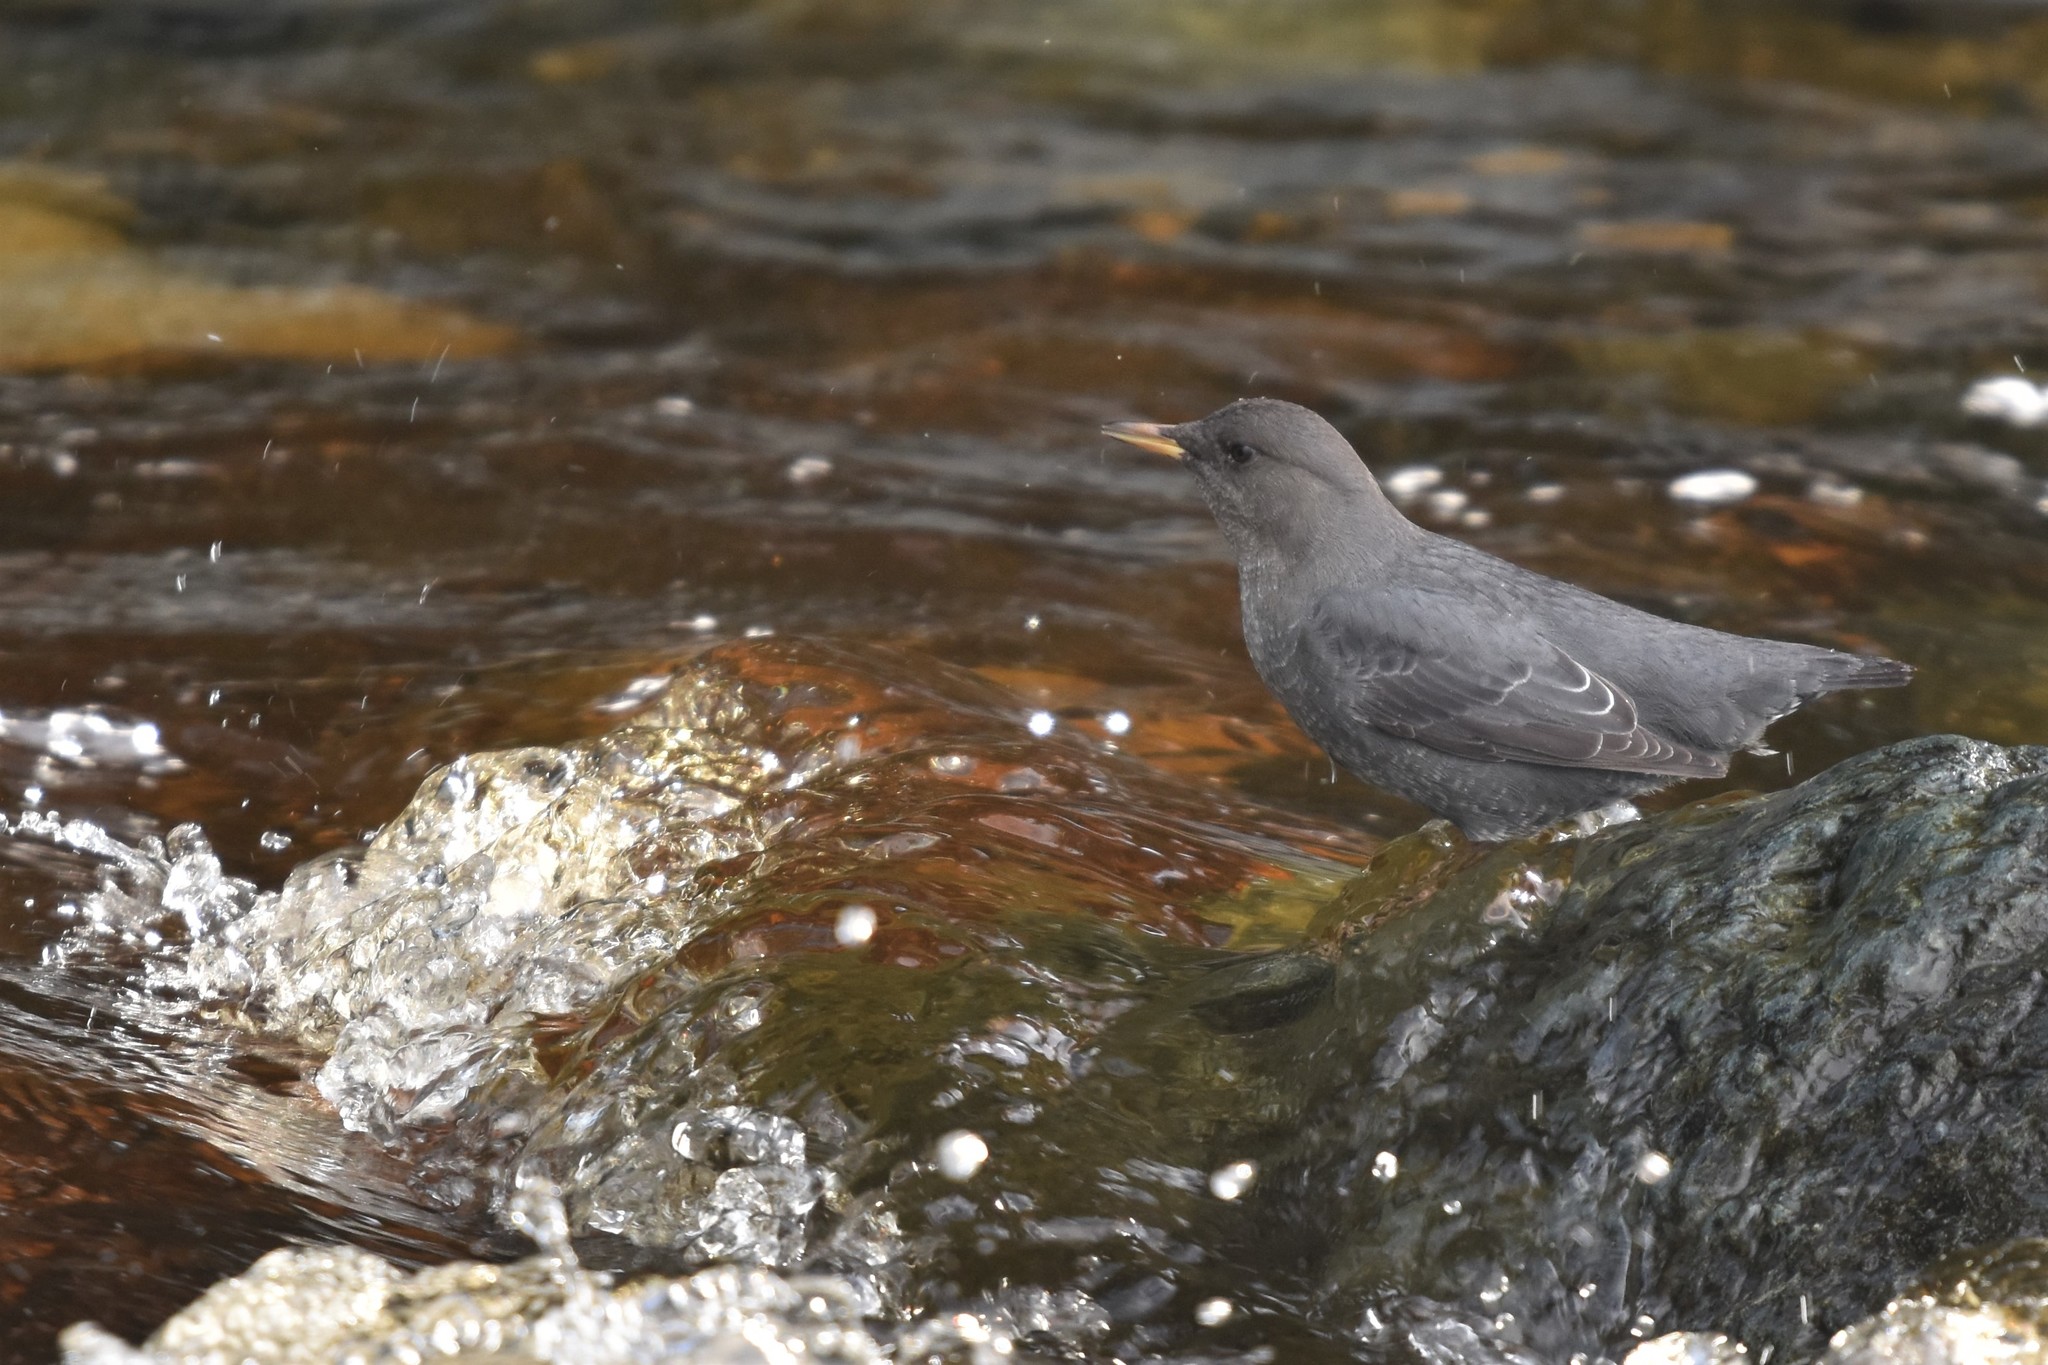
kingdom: Animalia
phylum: Chordata
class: Aves
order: Passeriformes
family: Cinclidae
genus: Cinclus
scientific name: Cinclus mexicanus
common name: American dipper
